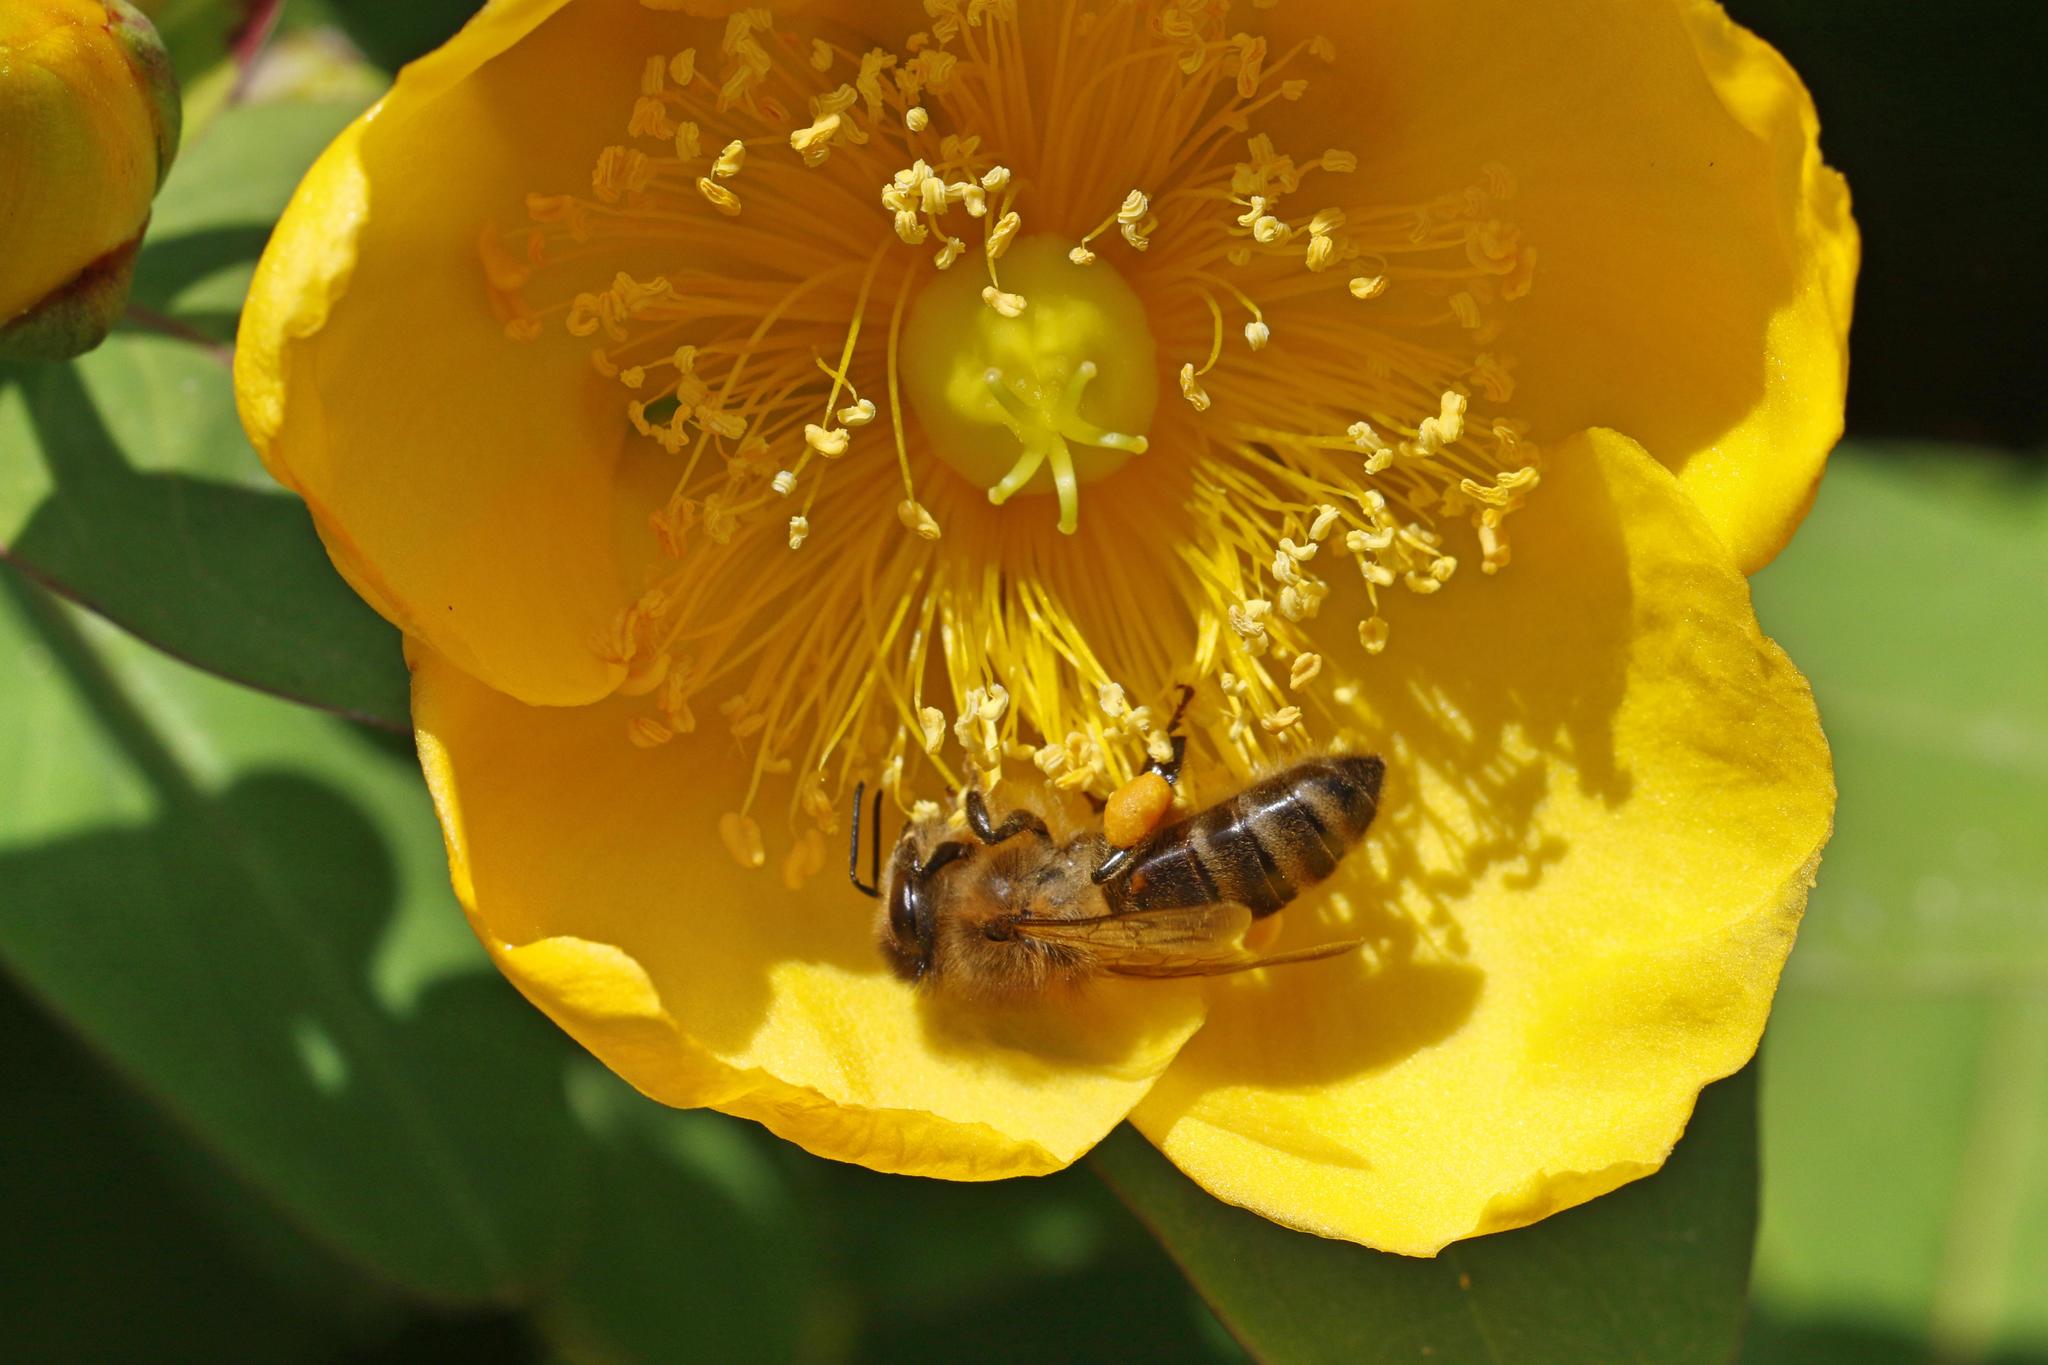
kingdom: Animalia
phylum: Arthropoda
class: Insecta
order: Hymenoptera
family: Apidae
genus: Apis
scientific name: Apis mellifera
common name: Honey bee
